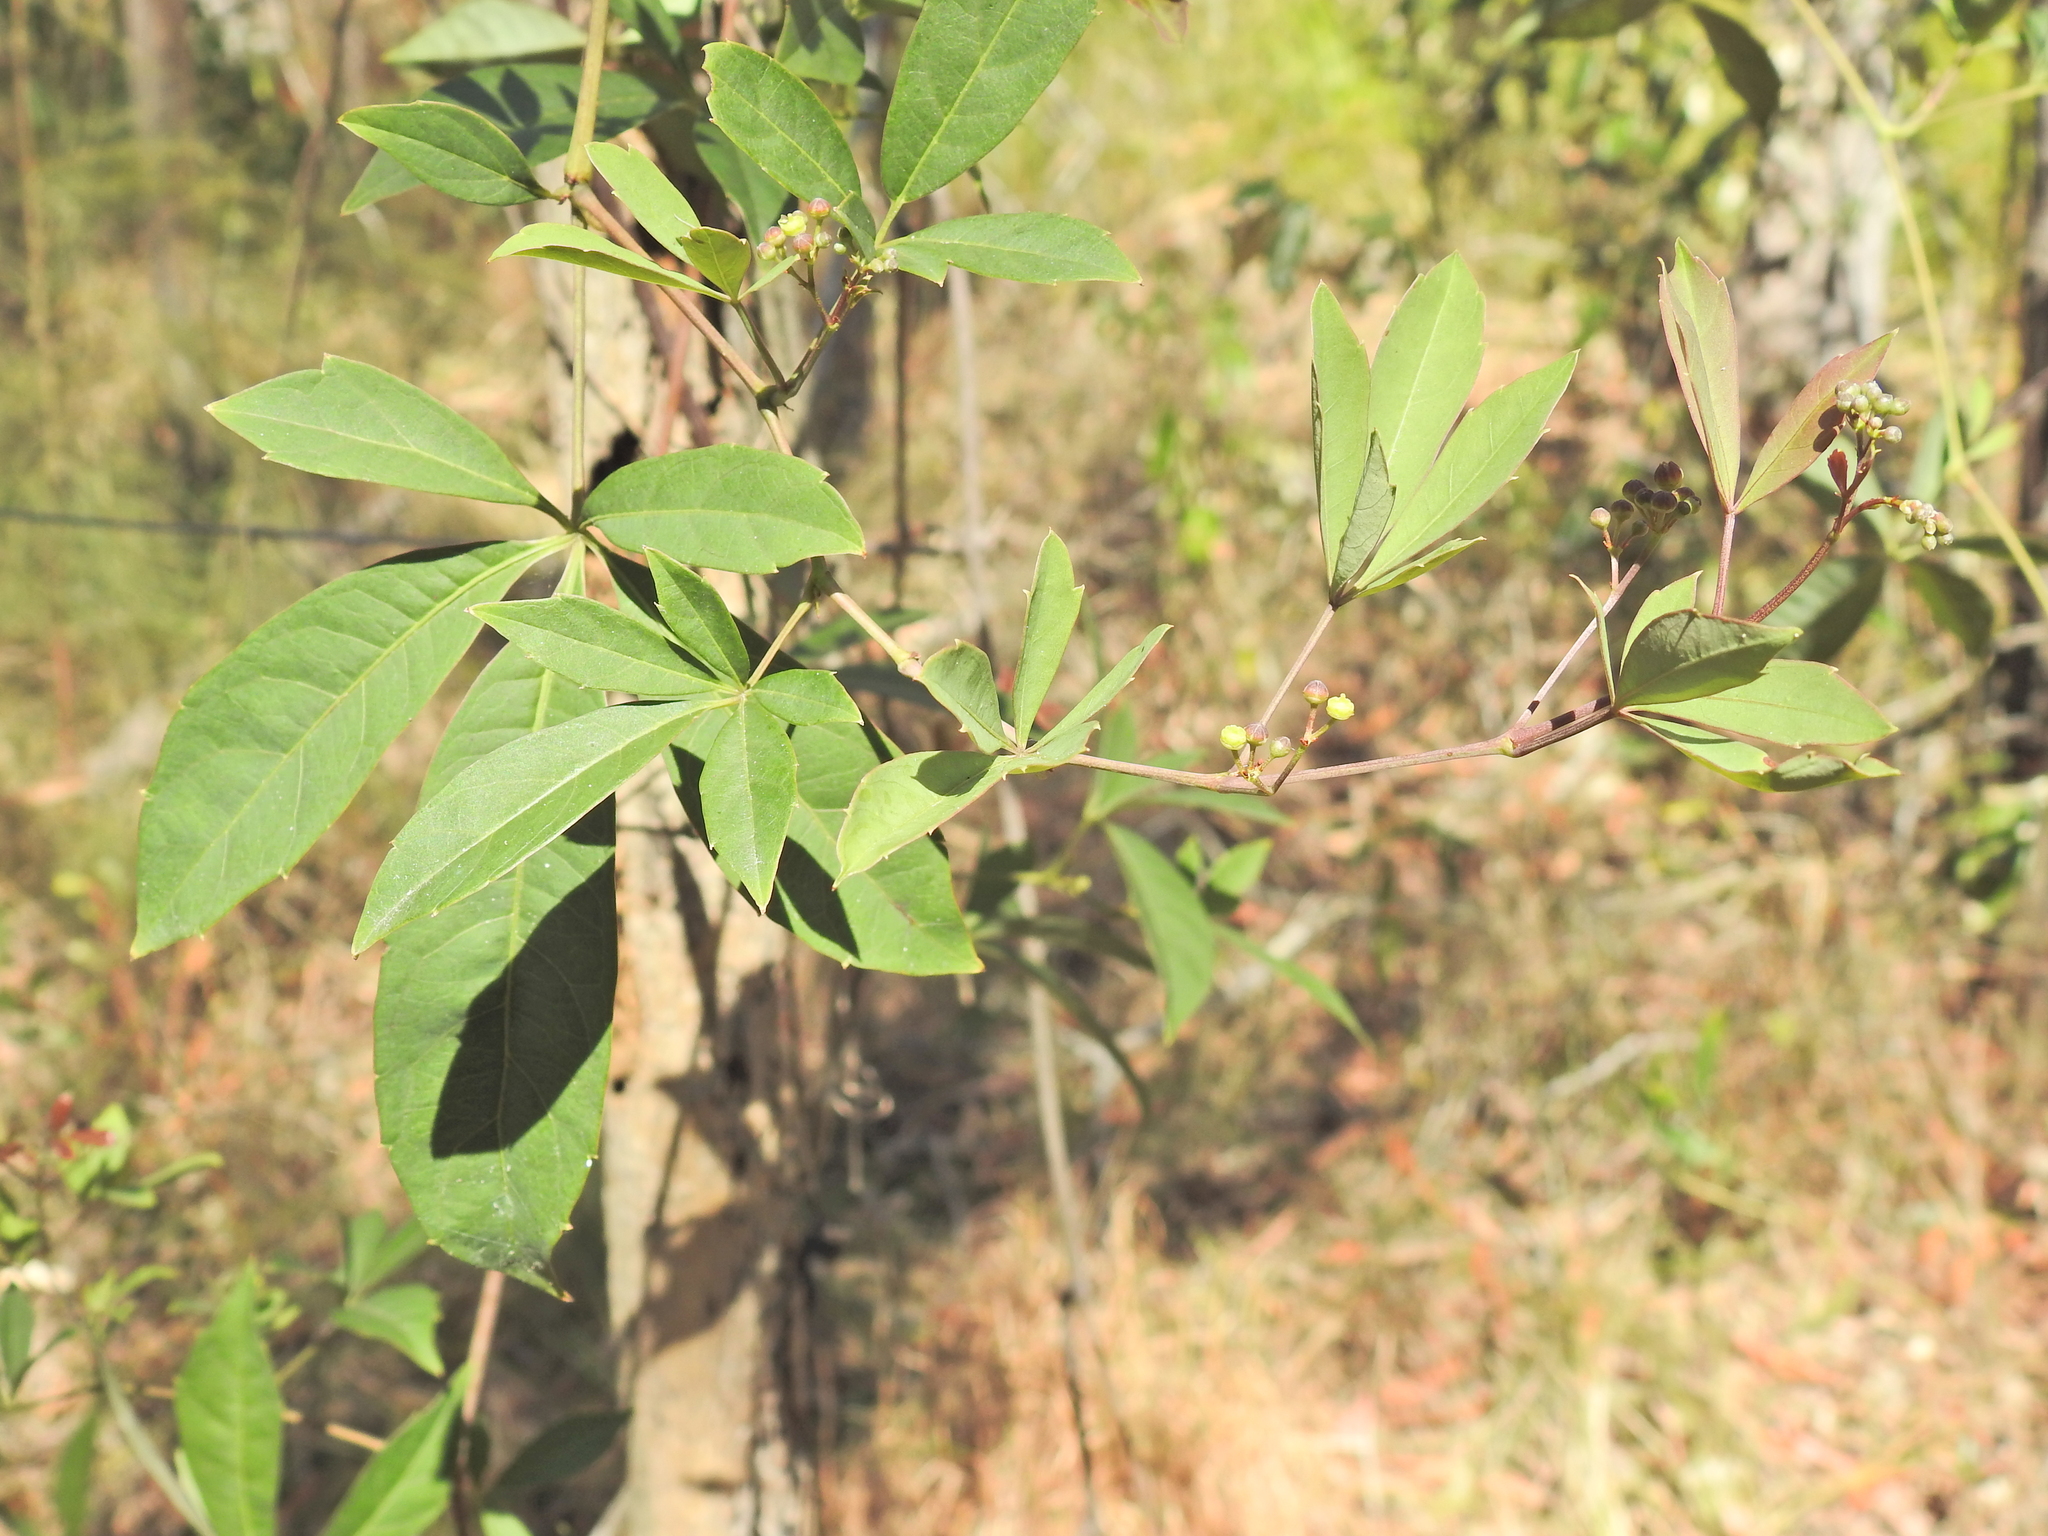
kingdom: Plantae
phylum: Tracheophyta
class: Magnoliopsida
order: Vitales
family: Vitaceae
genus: Clematicissus
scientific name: Clematicissus opaca
